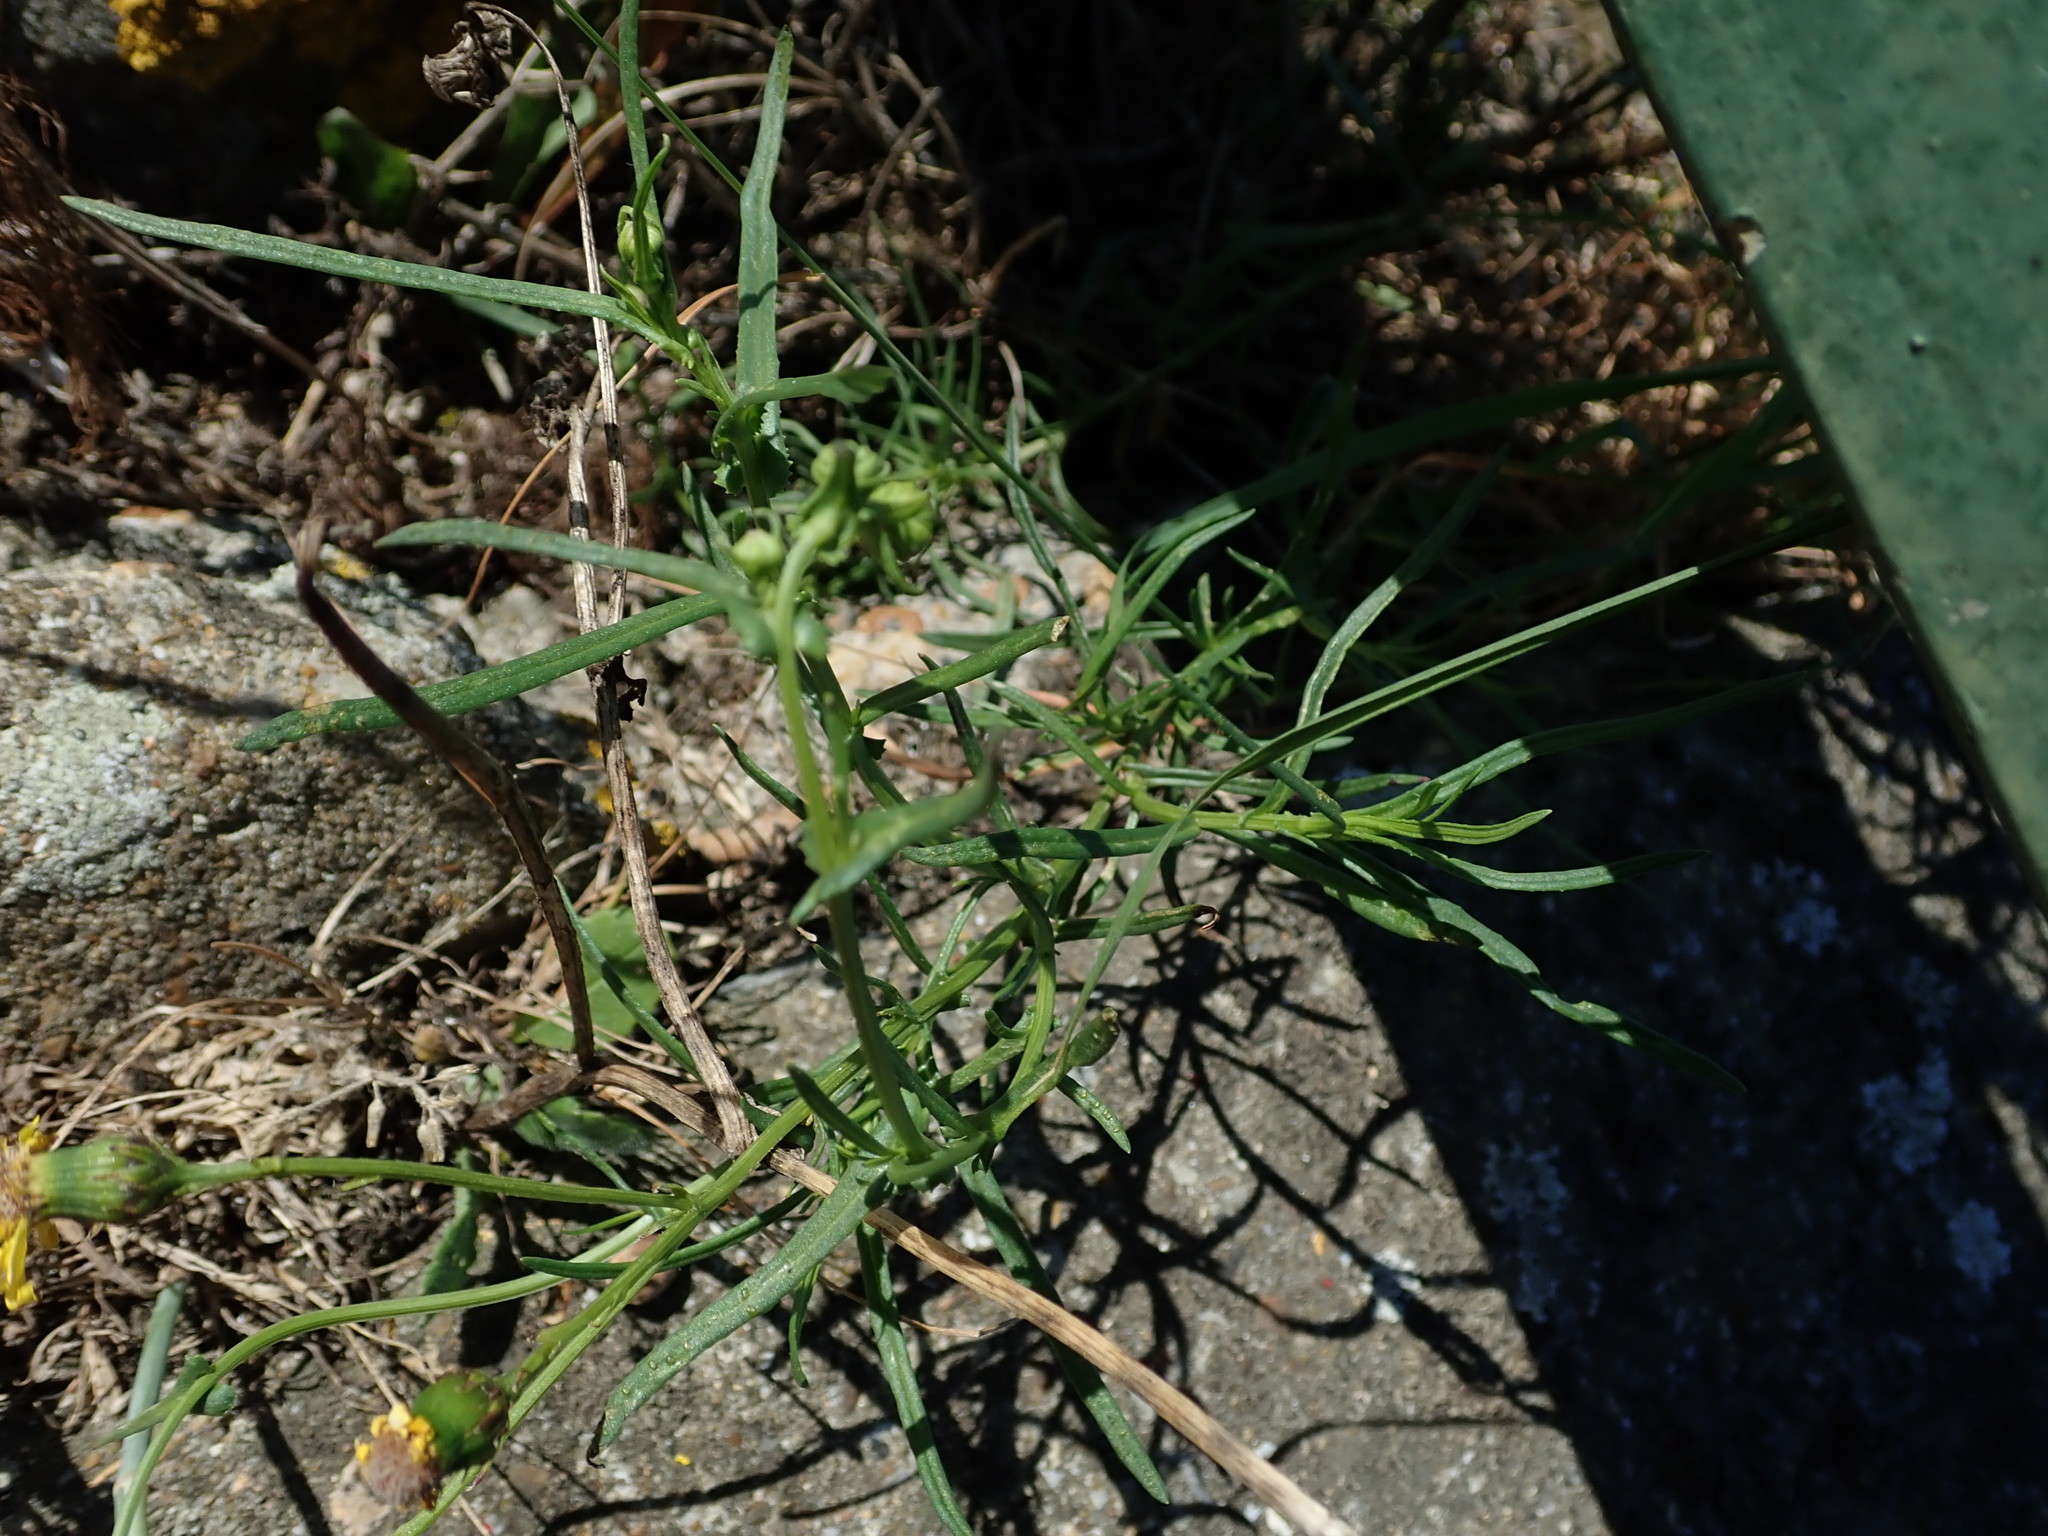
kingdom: Plantae
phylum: Tracheophyta
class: Magnoliopsida
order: Asterales
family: Asteraceae
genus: Senecio
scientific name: Senecio inaequidens
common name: Narrow-leaved ragwort
